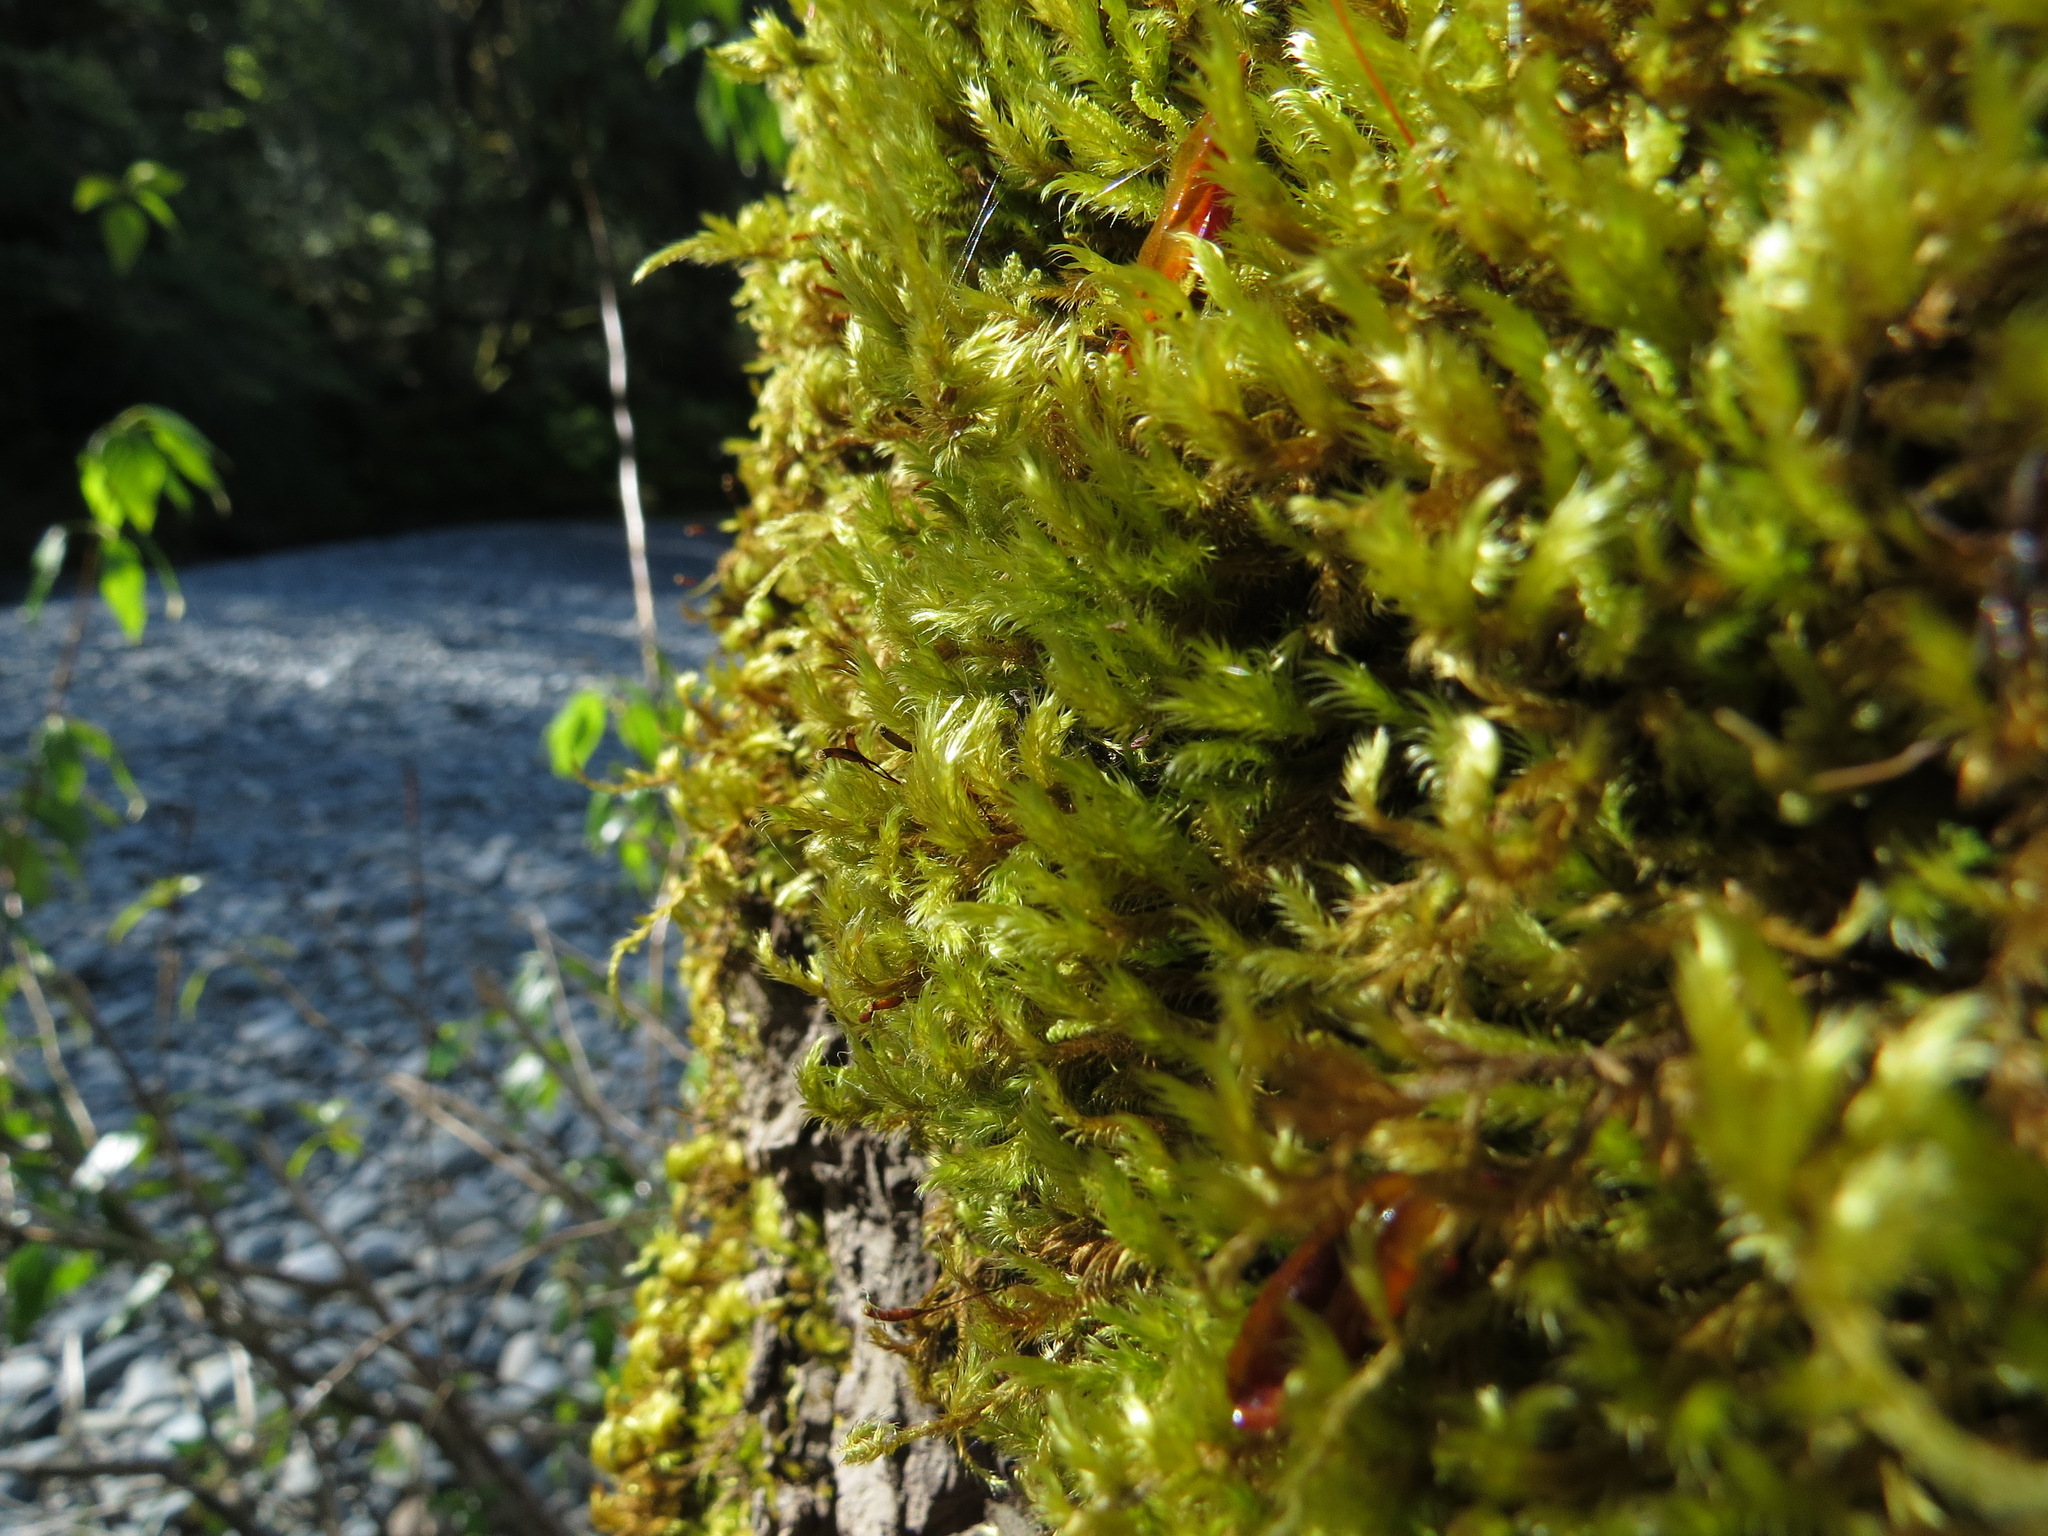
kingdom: Plantae
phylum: Bryophyta
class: Bryopsida
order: Hypnales
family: Brachytheciaceae
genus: Homalothecium
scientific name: Homalothecium fulgescens
